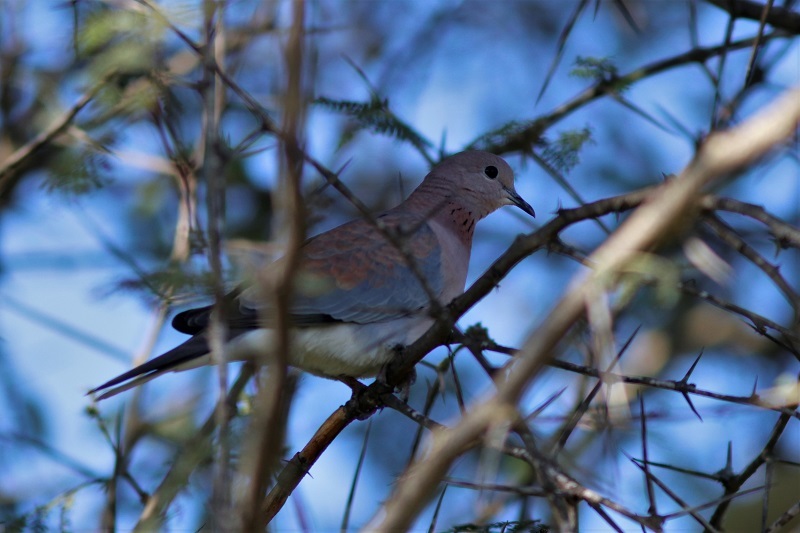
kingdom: Animalia
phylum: Chordata
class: Aves
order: Columbiformes
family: Columbidae
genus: Spilopelia
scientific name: Spilopelia senegalensis
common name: Laughing dove
